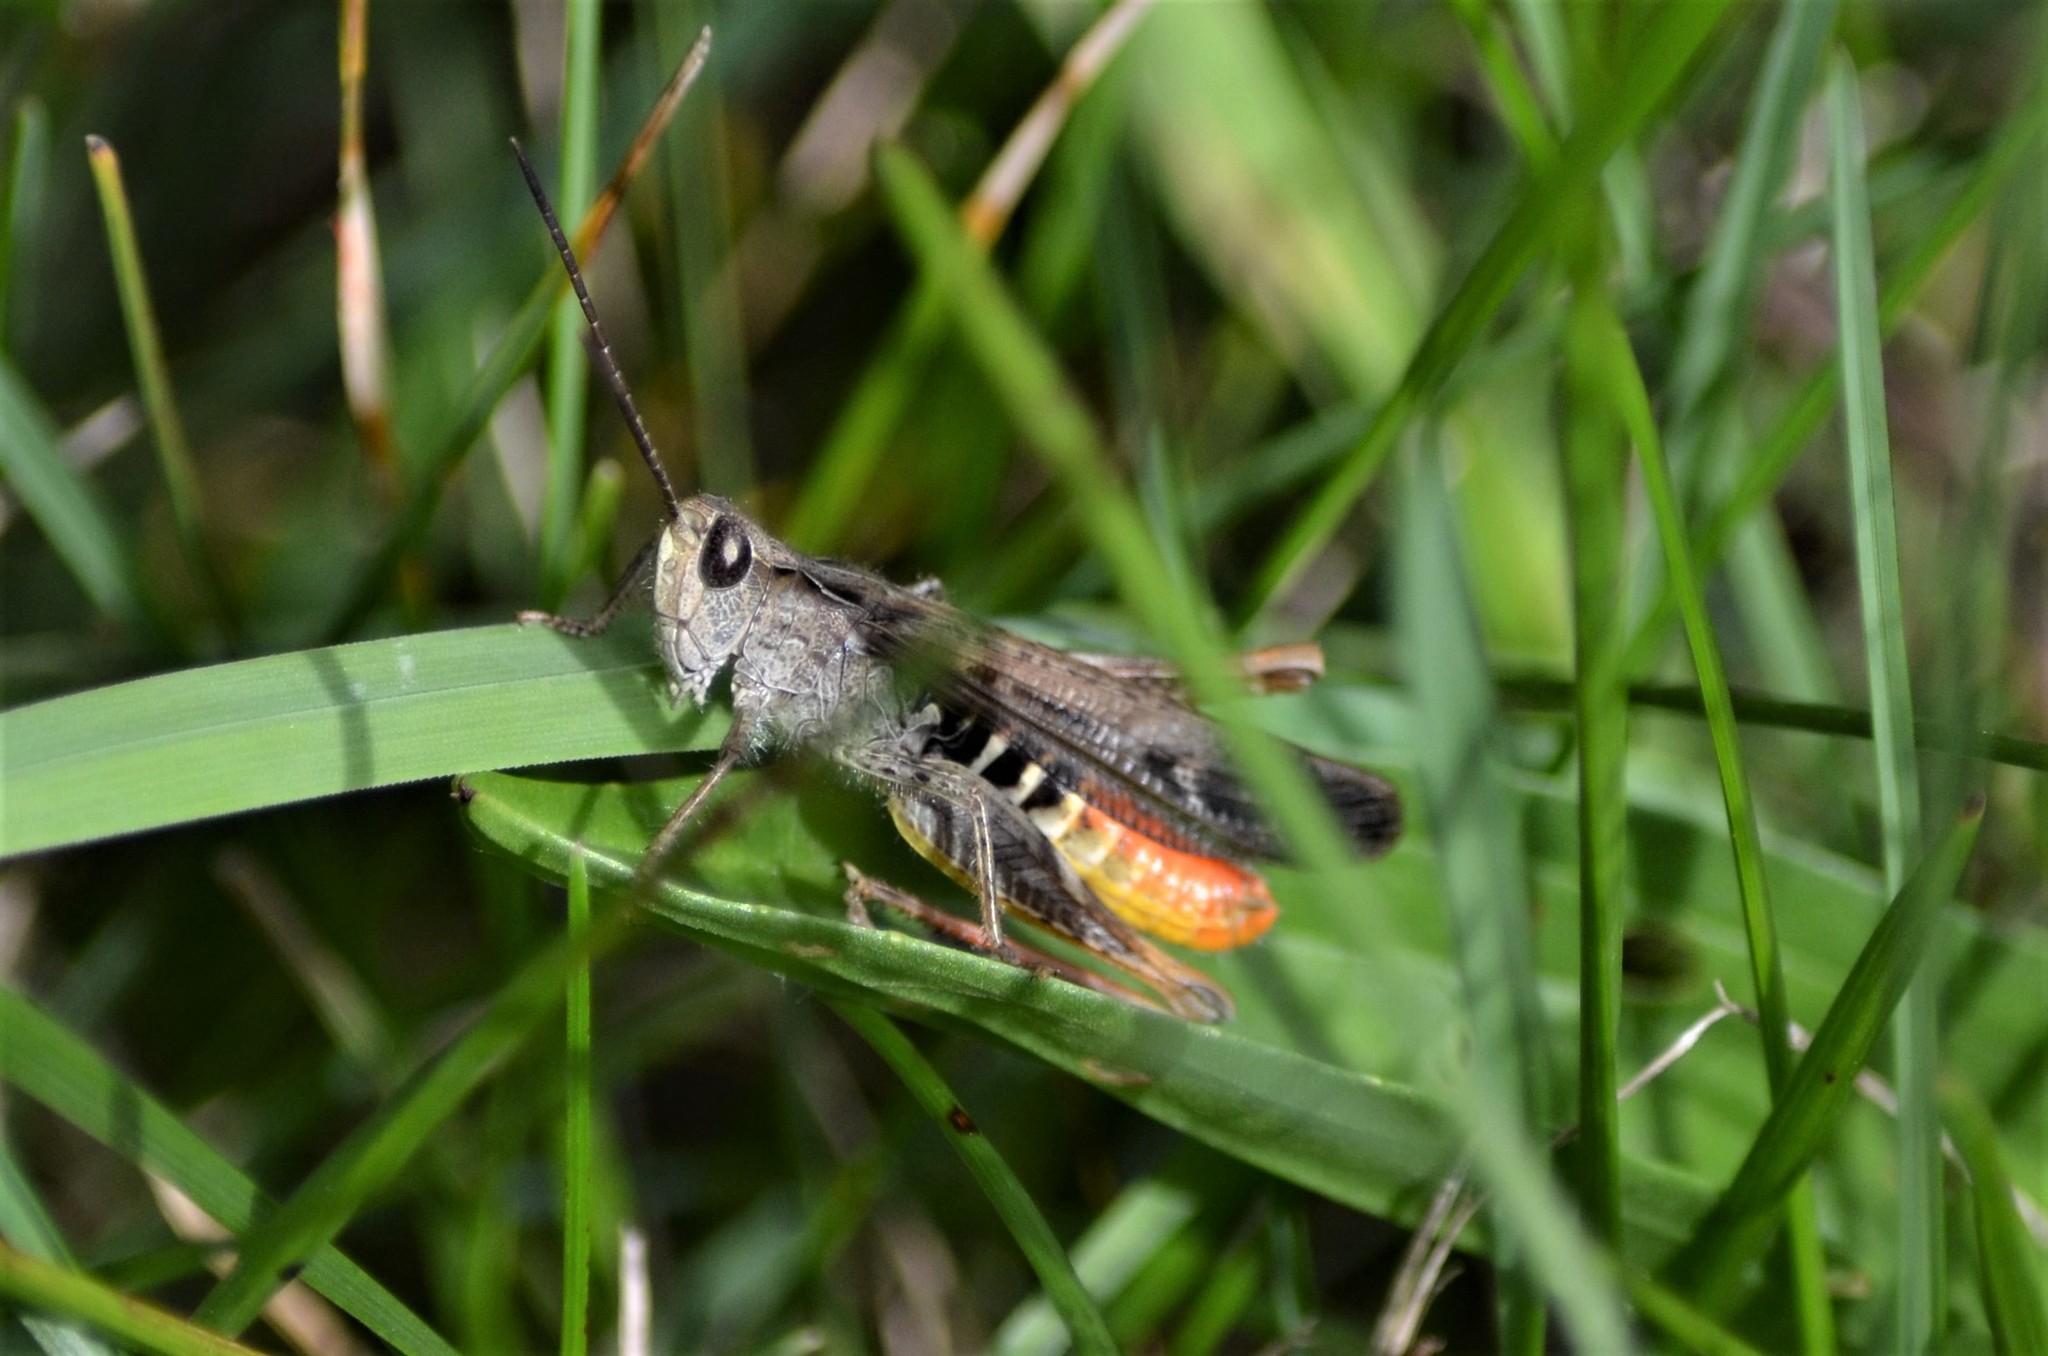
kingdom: Animalia
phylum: Arthropoda
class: Insecta
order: Orthoptera
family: Acrididae
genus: Chorthippus
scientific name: Chorthippus brunneus
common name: Field grasshopper
